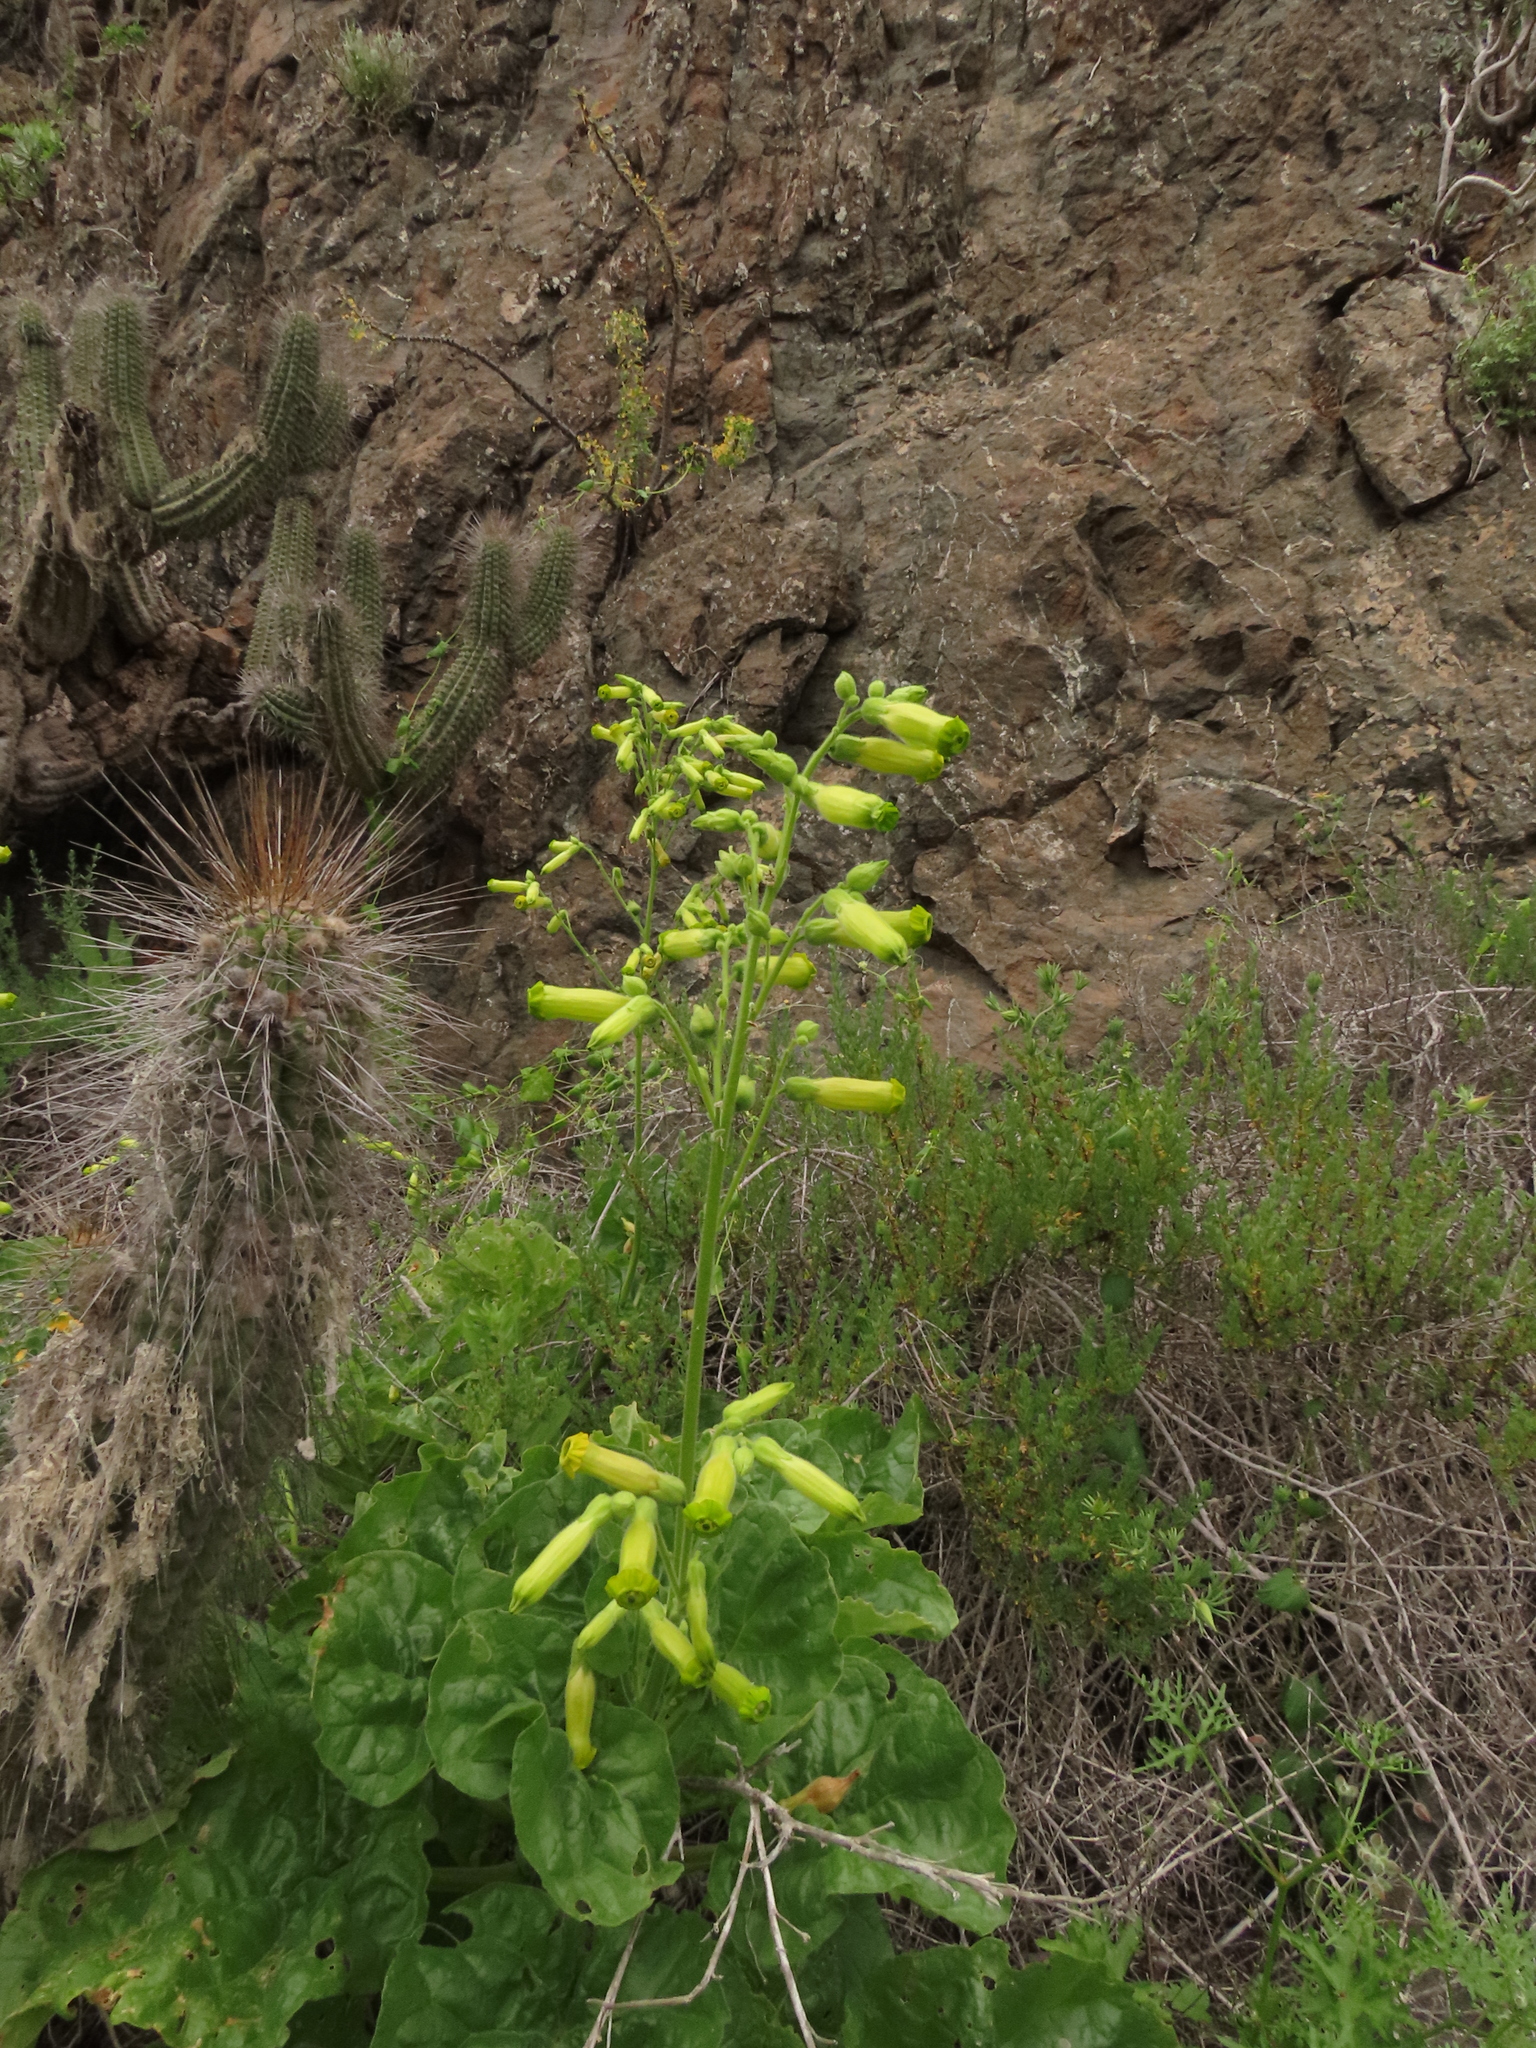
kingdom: Plantae
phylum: Tracheophyta
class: Magnoliopsida
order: Solanales
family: Solanaceae
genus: Nicotiana
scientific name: Nicotiana solanifolia
